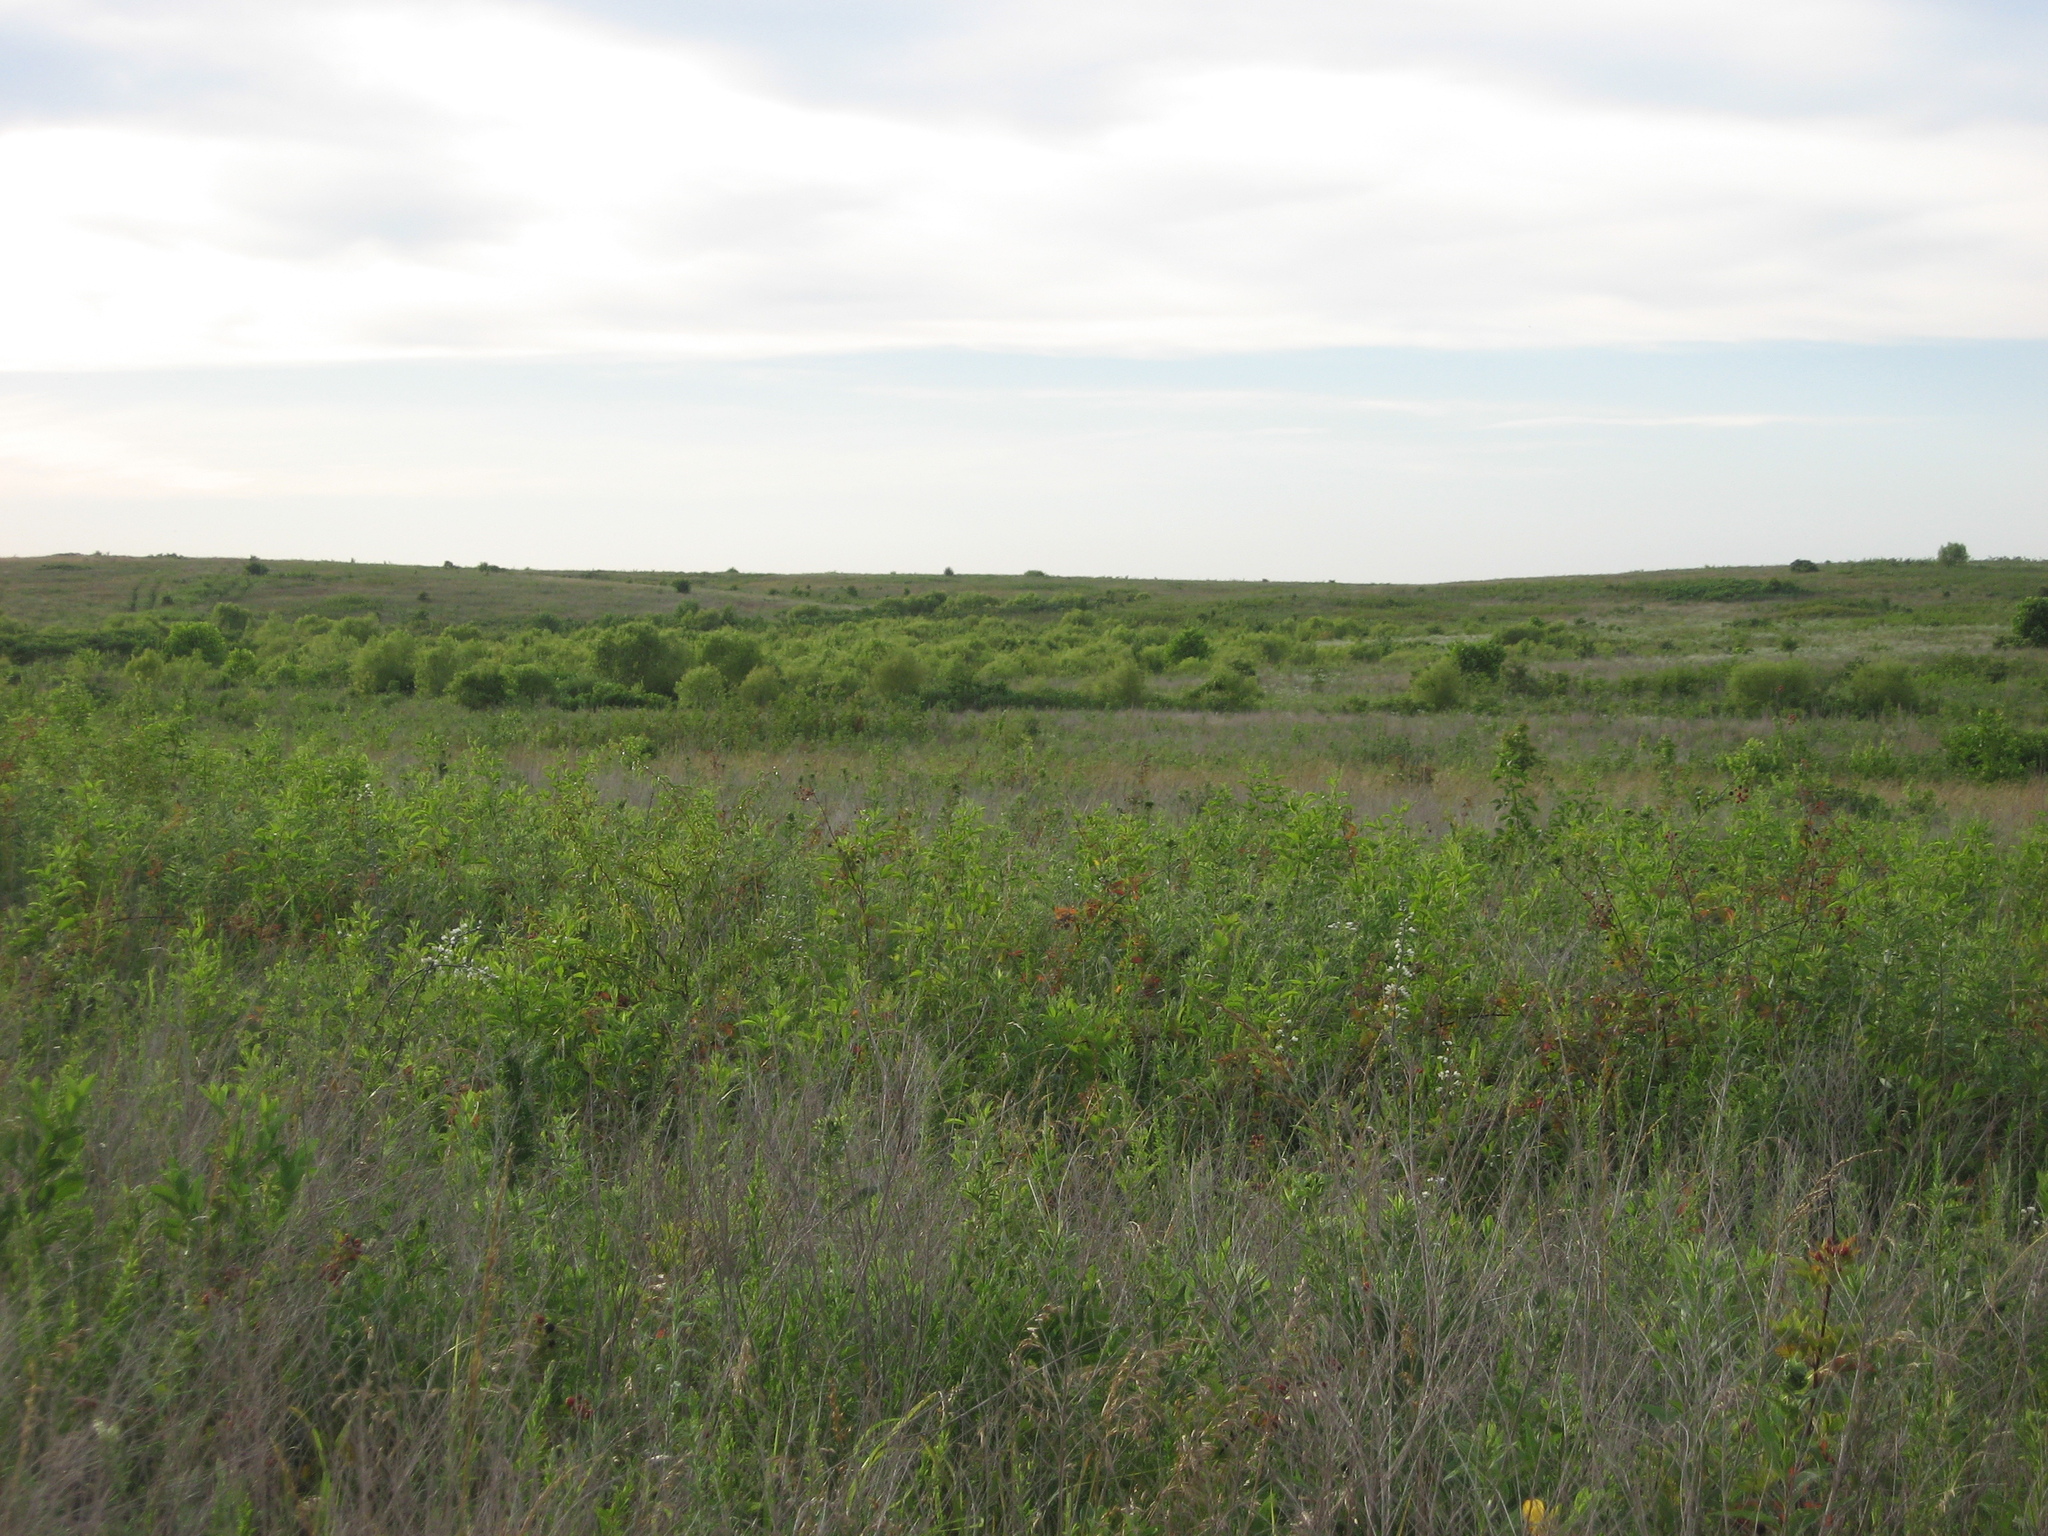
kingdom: Plantae
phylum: Tracheophyta
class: Magnoliopsida
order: Fabales
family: Fabaceae
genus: Baptisia
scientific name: Baptisia alba
